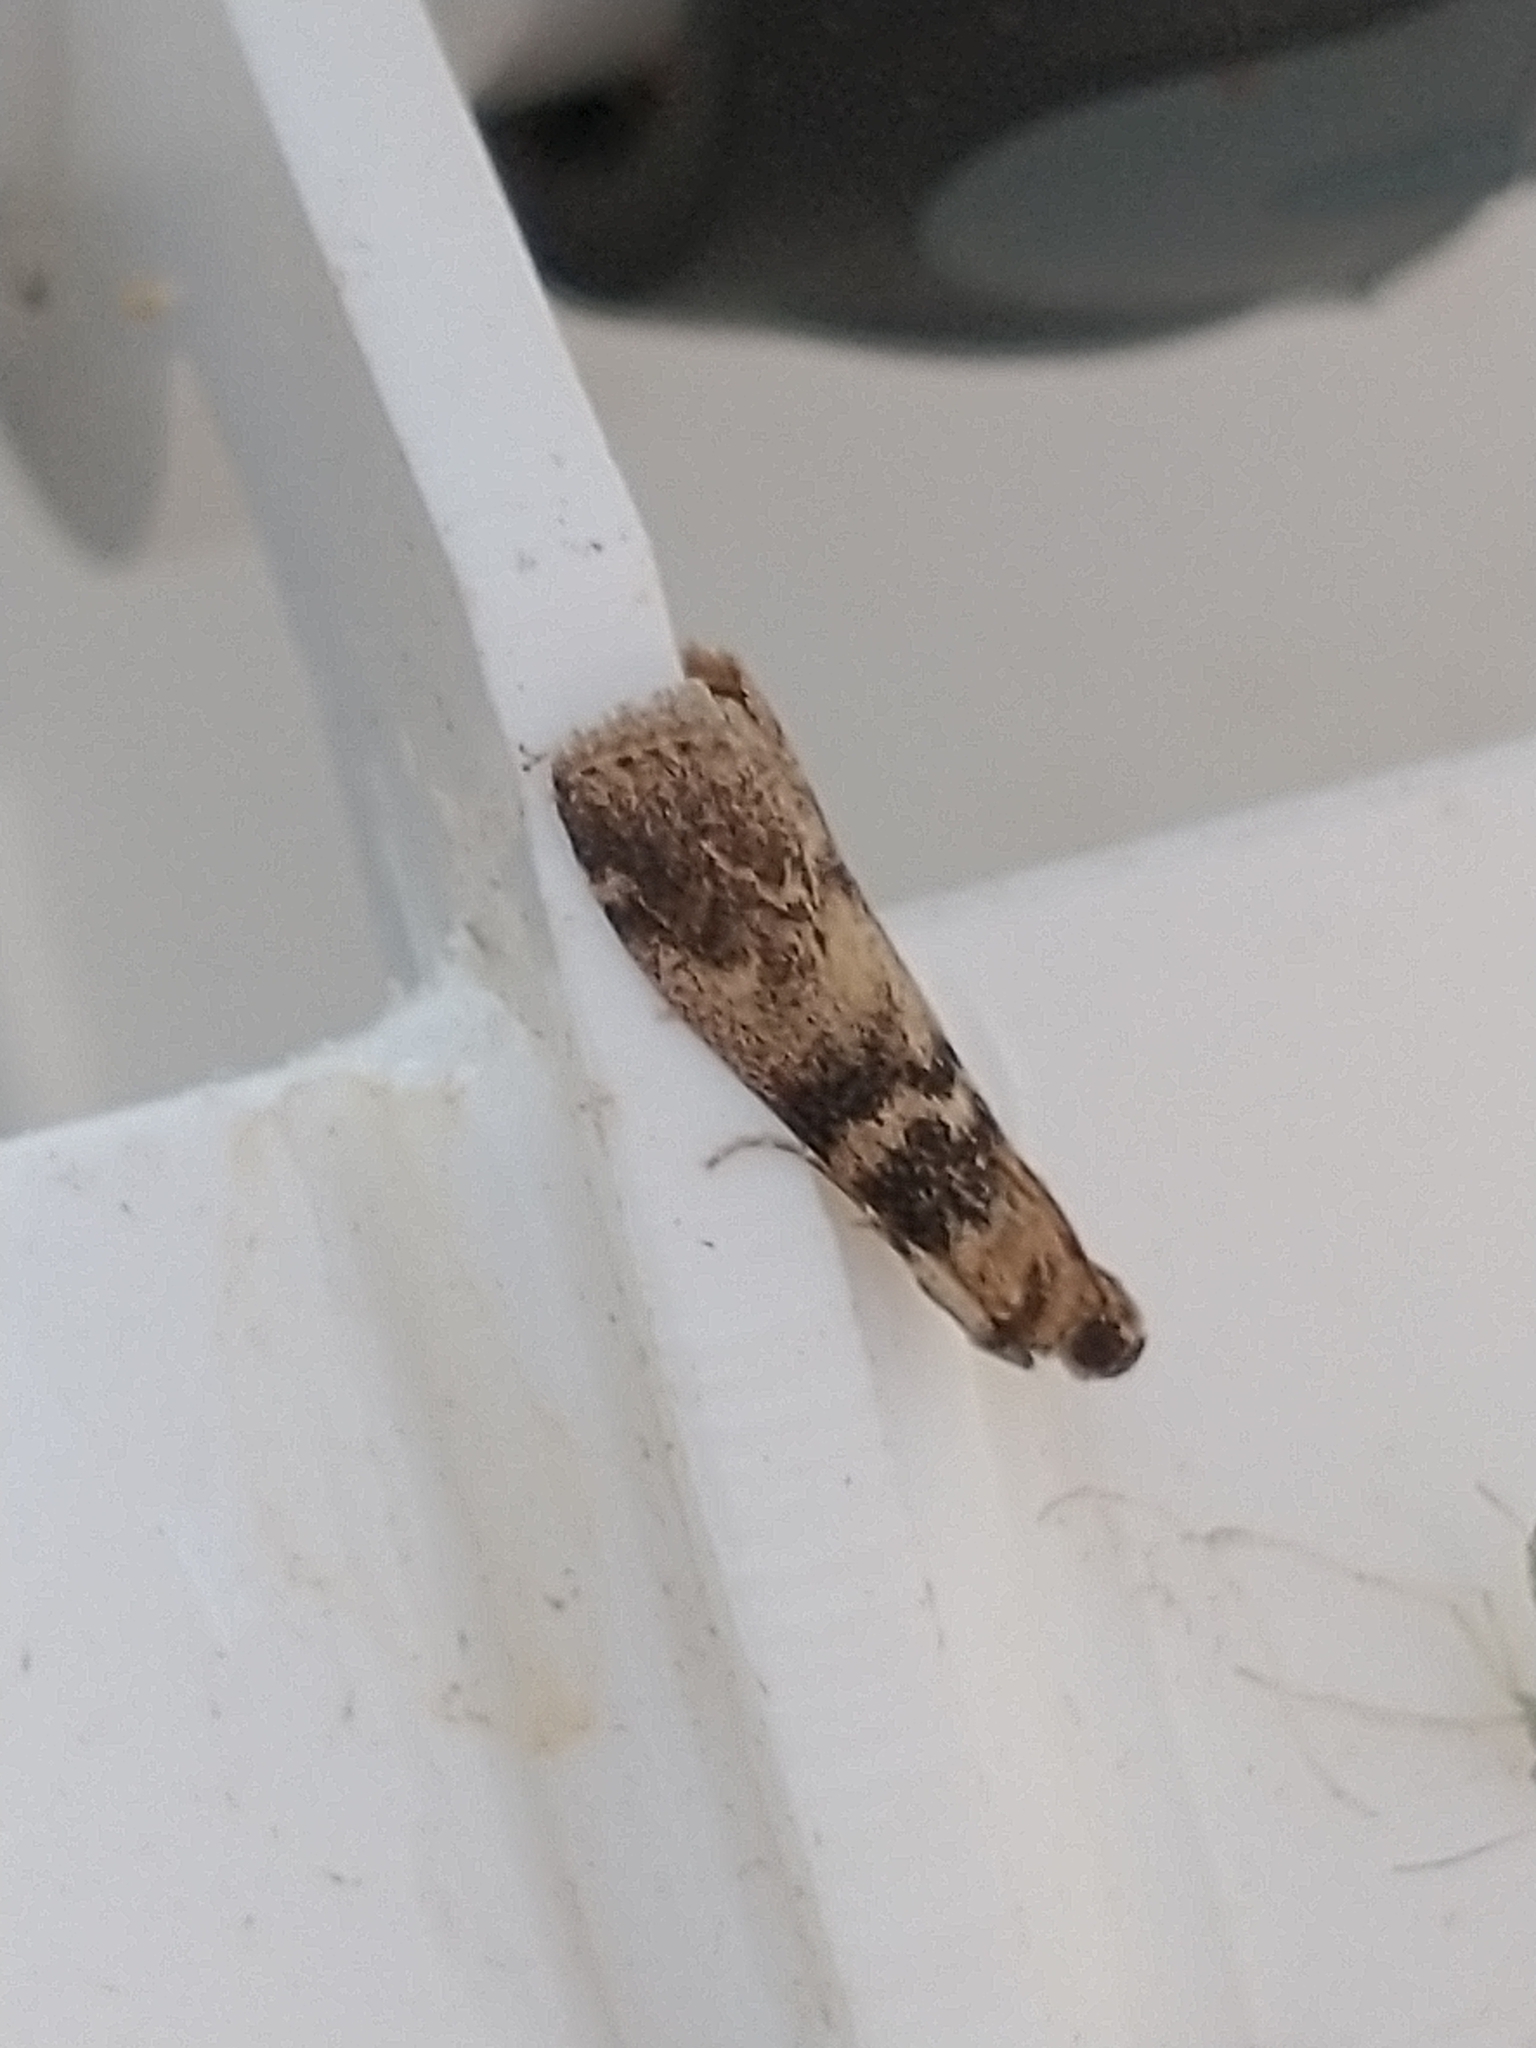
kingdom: Animalia
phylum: Arthropoda
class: Insecta
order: Lepidoptera
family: Pyralidae
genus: Euzophera
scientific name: Euzophera pinguis
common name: Ash-bark knot-horn
